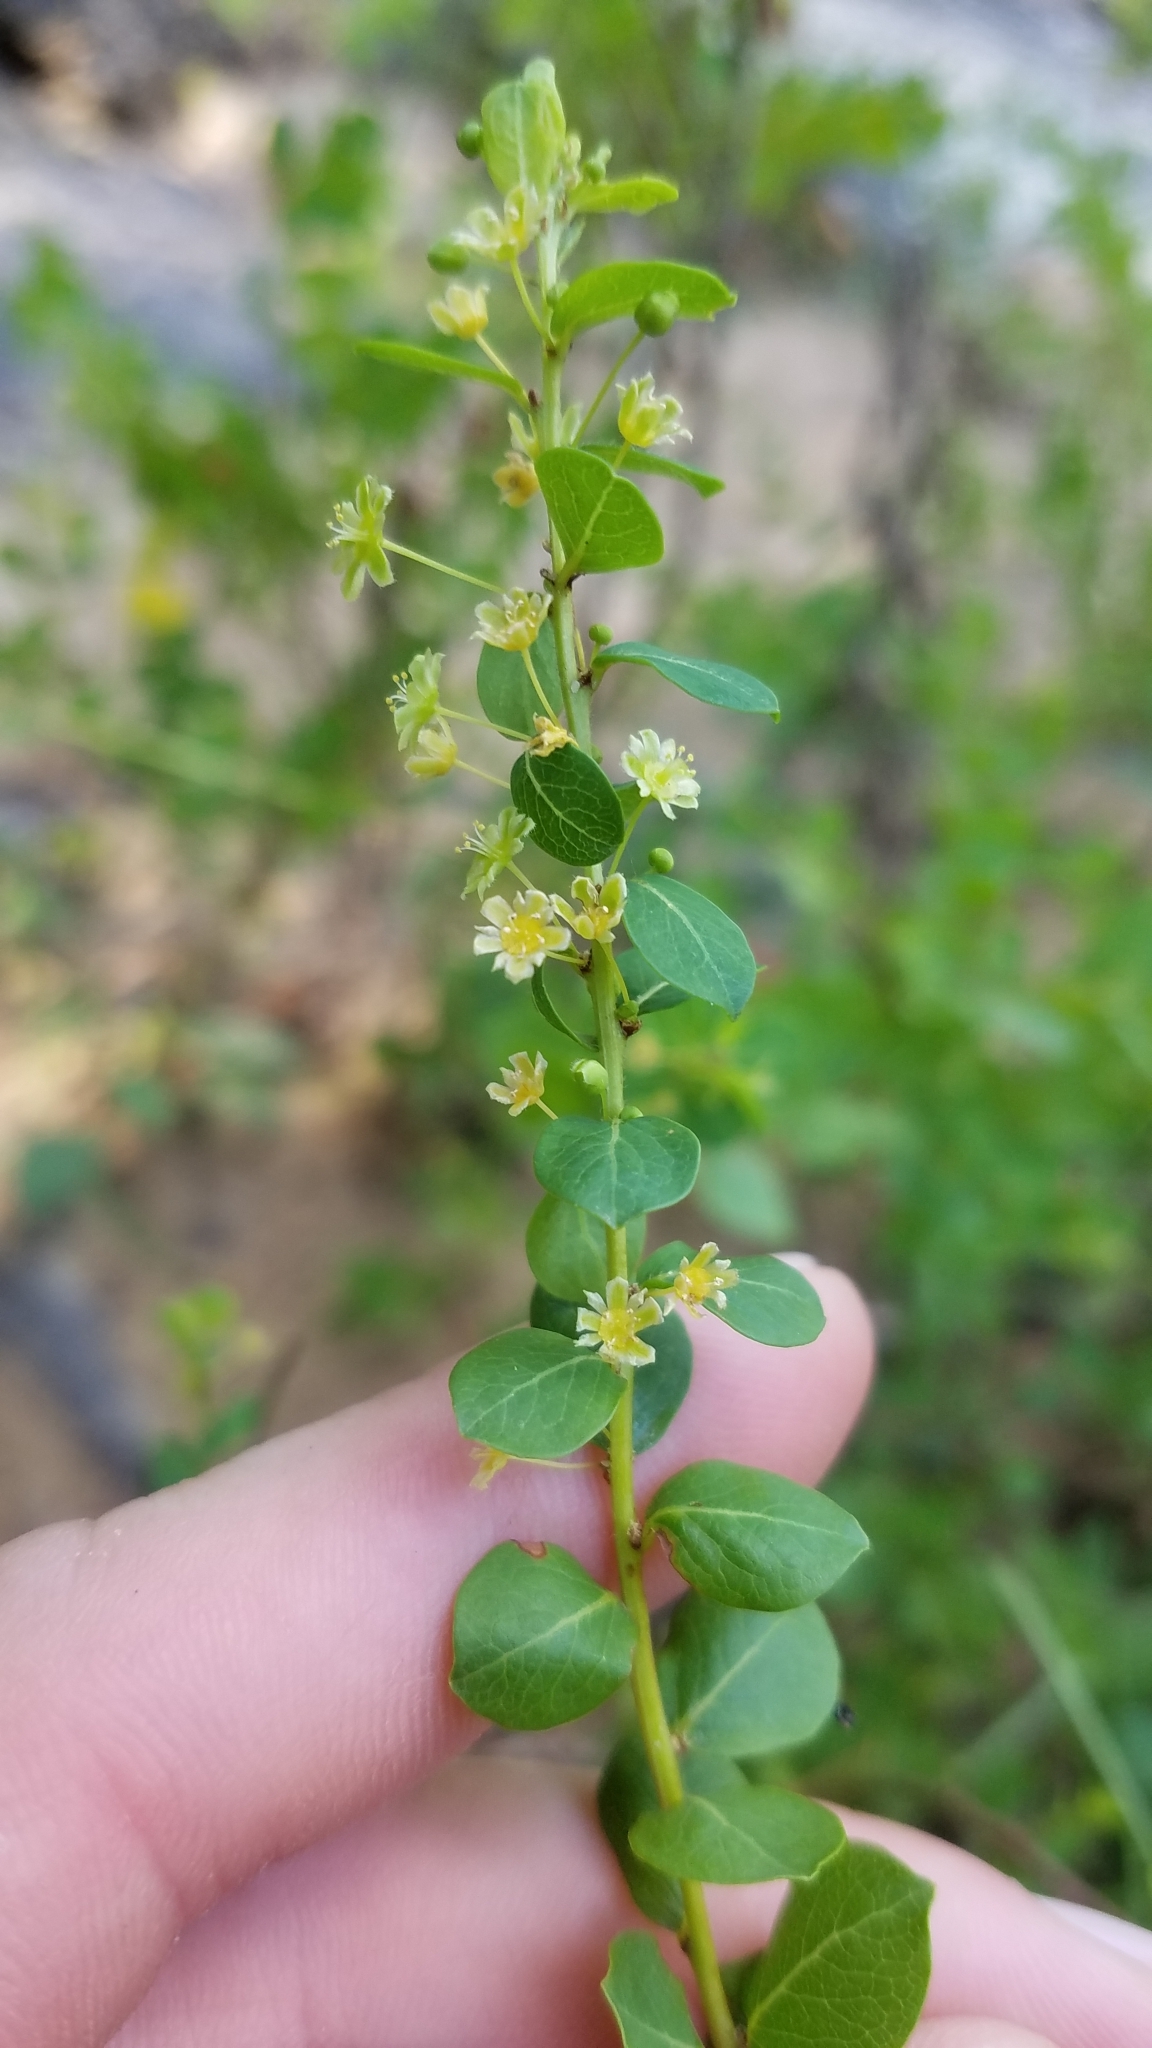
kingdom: Plantae
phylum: Tracheophyta
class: Magnoliopsida
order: Malpighiales
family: Phyllanthaceae
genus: Phyllanthopsis
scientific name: Phyllanthopsis phyllanthoides
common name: Missouri maidenbush
